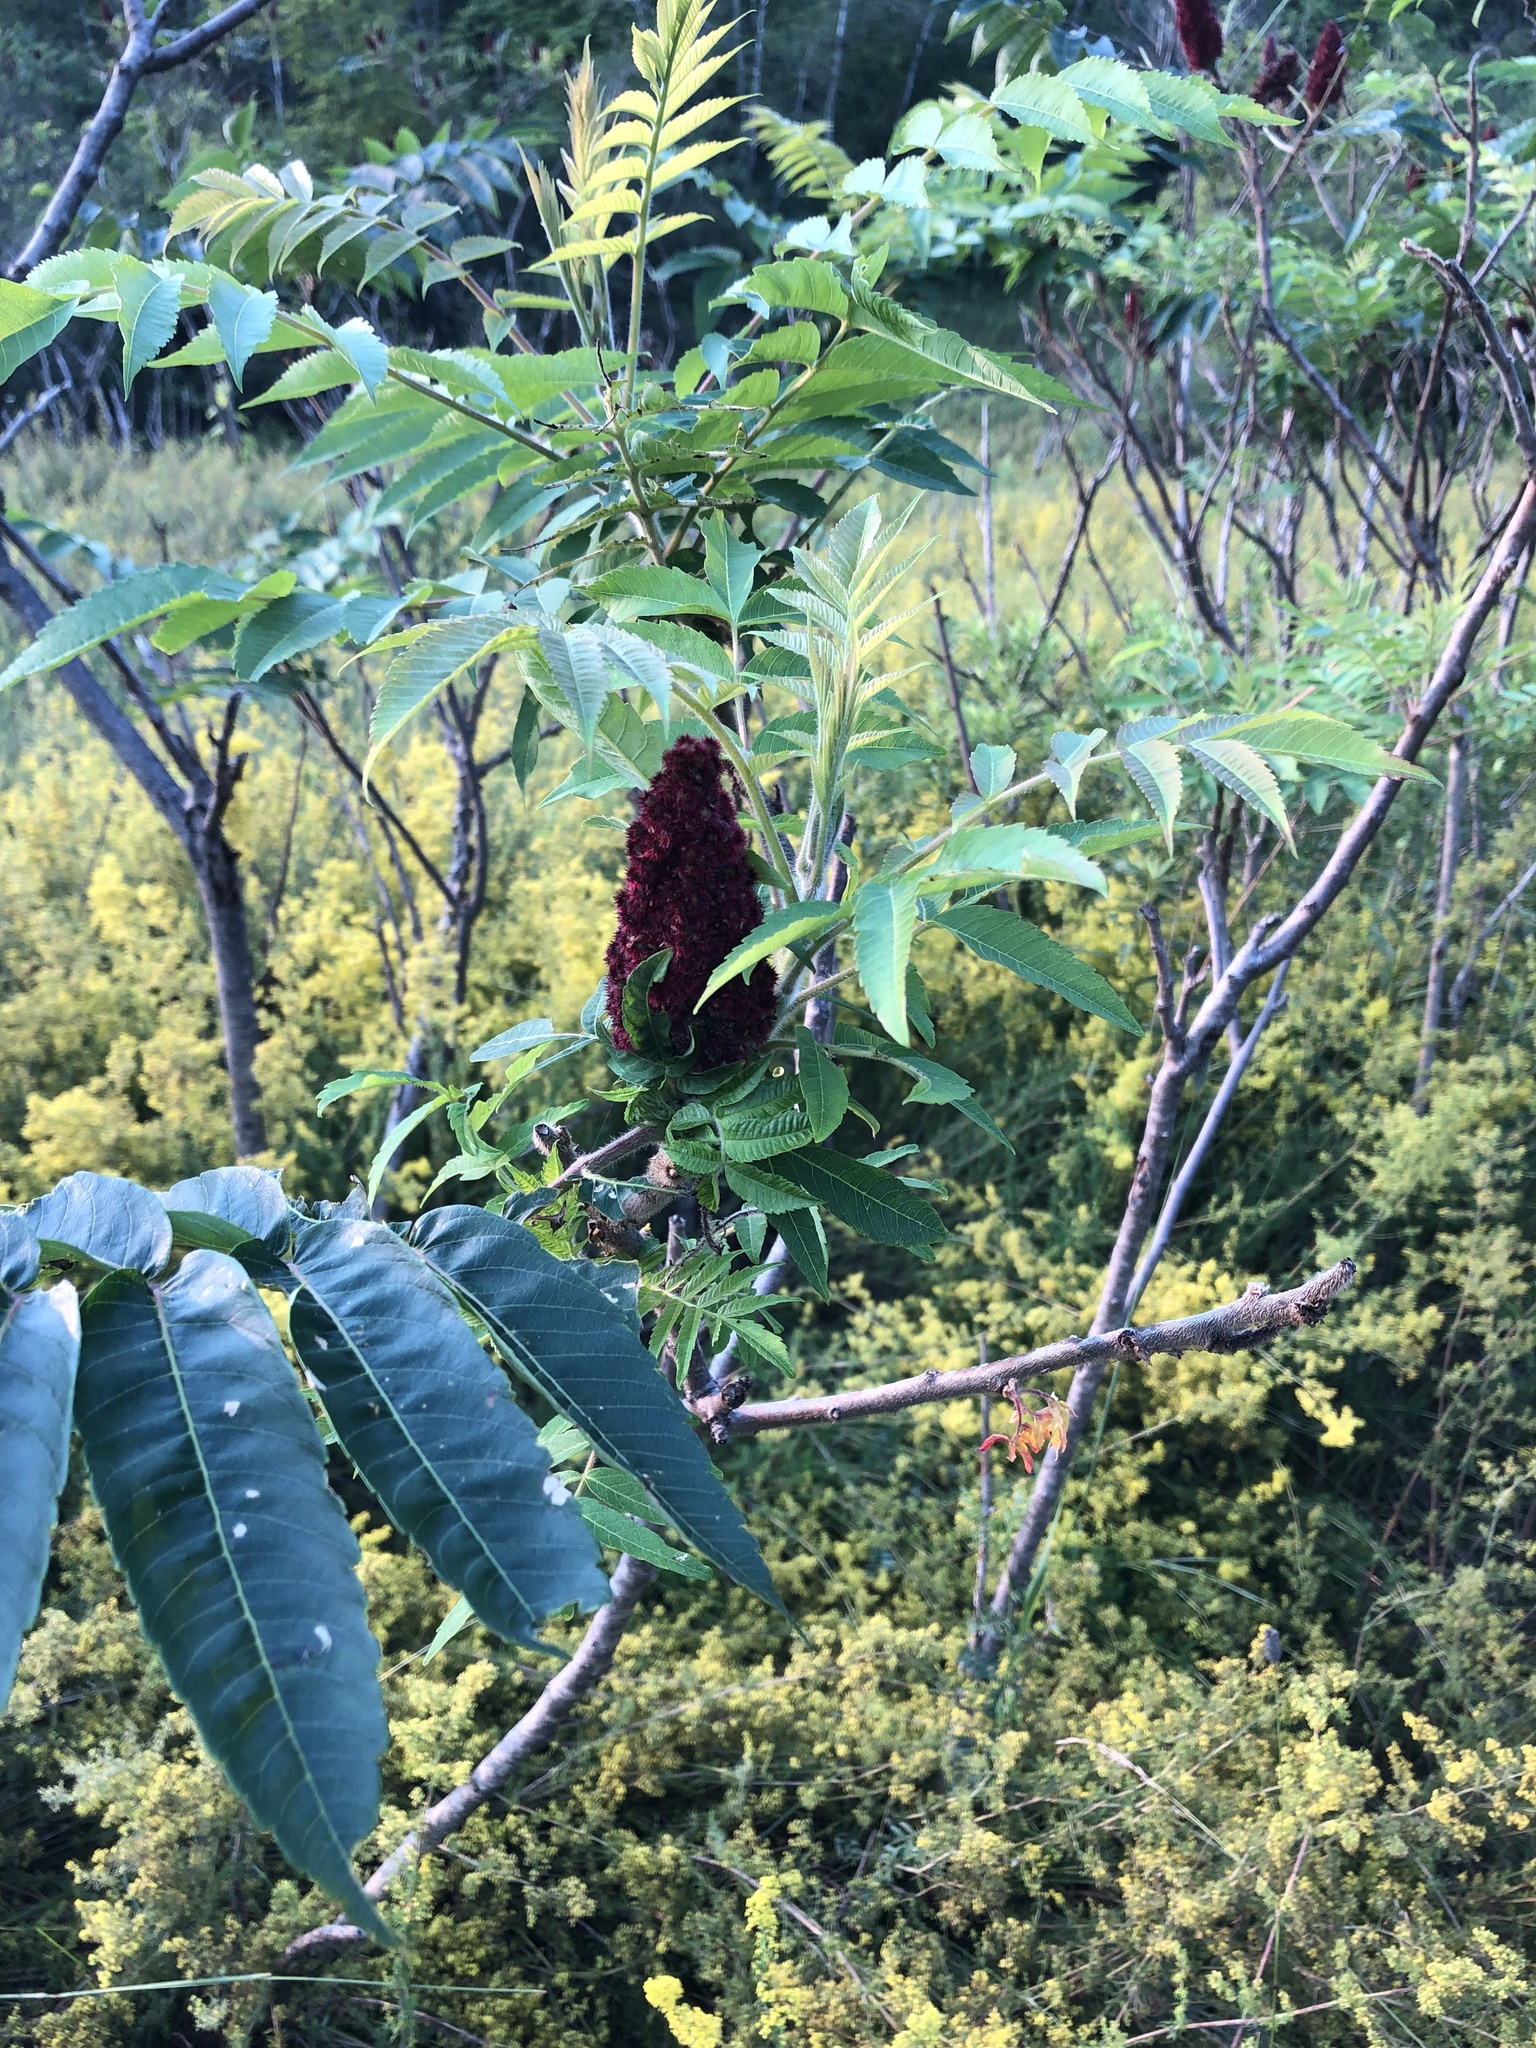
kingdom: Plantae
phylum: Tracheophyta
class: Magnoliopsida
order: Sapindales
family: Anacardiaceae
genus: Rhus
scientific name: Rhus typhina
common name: Staghorn sumac
